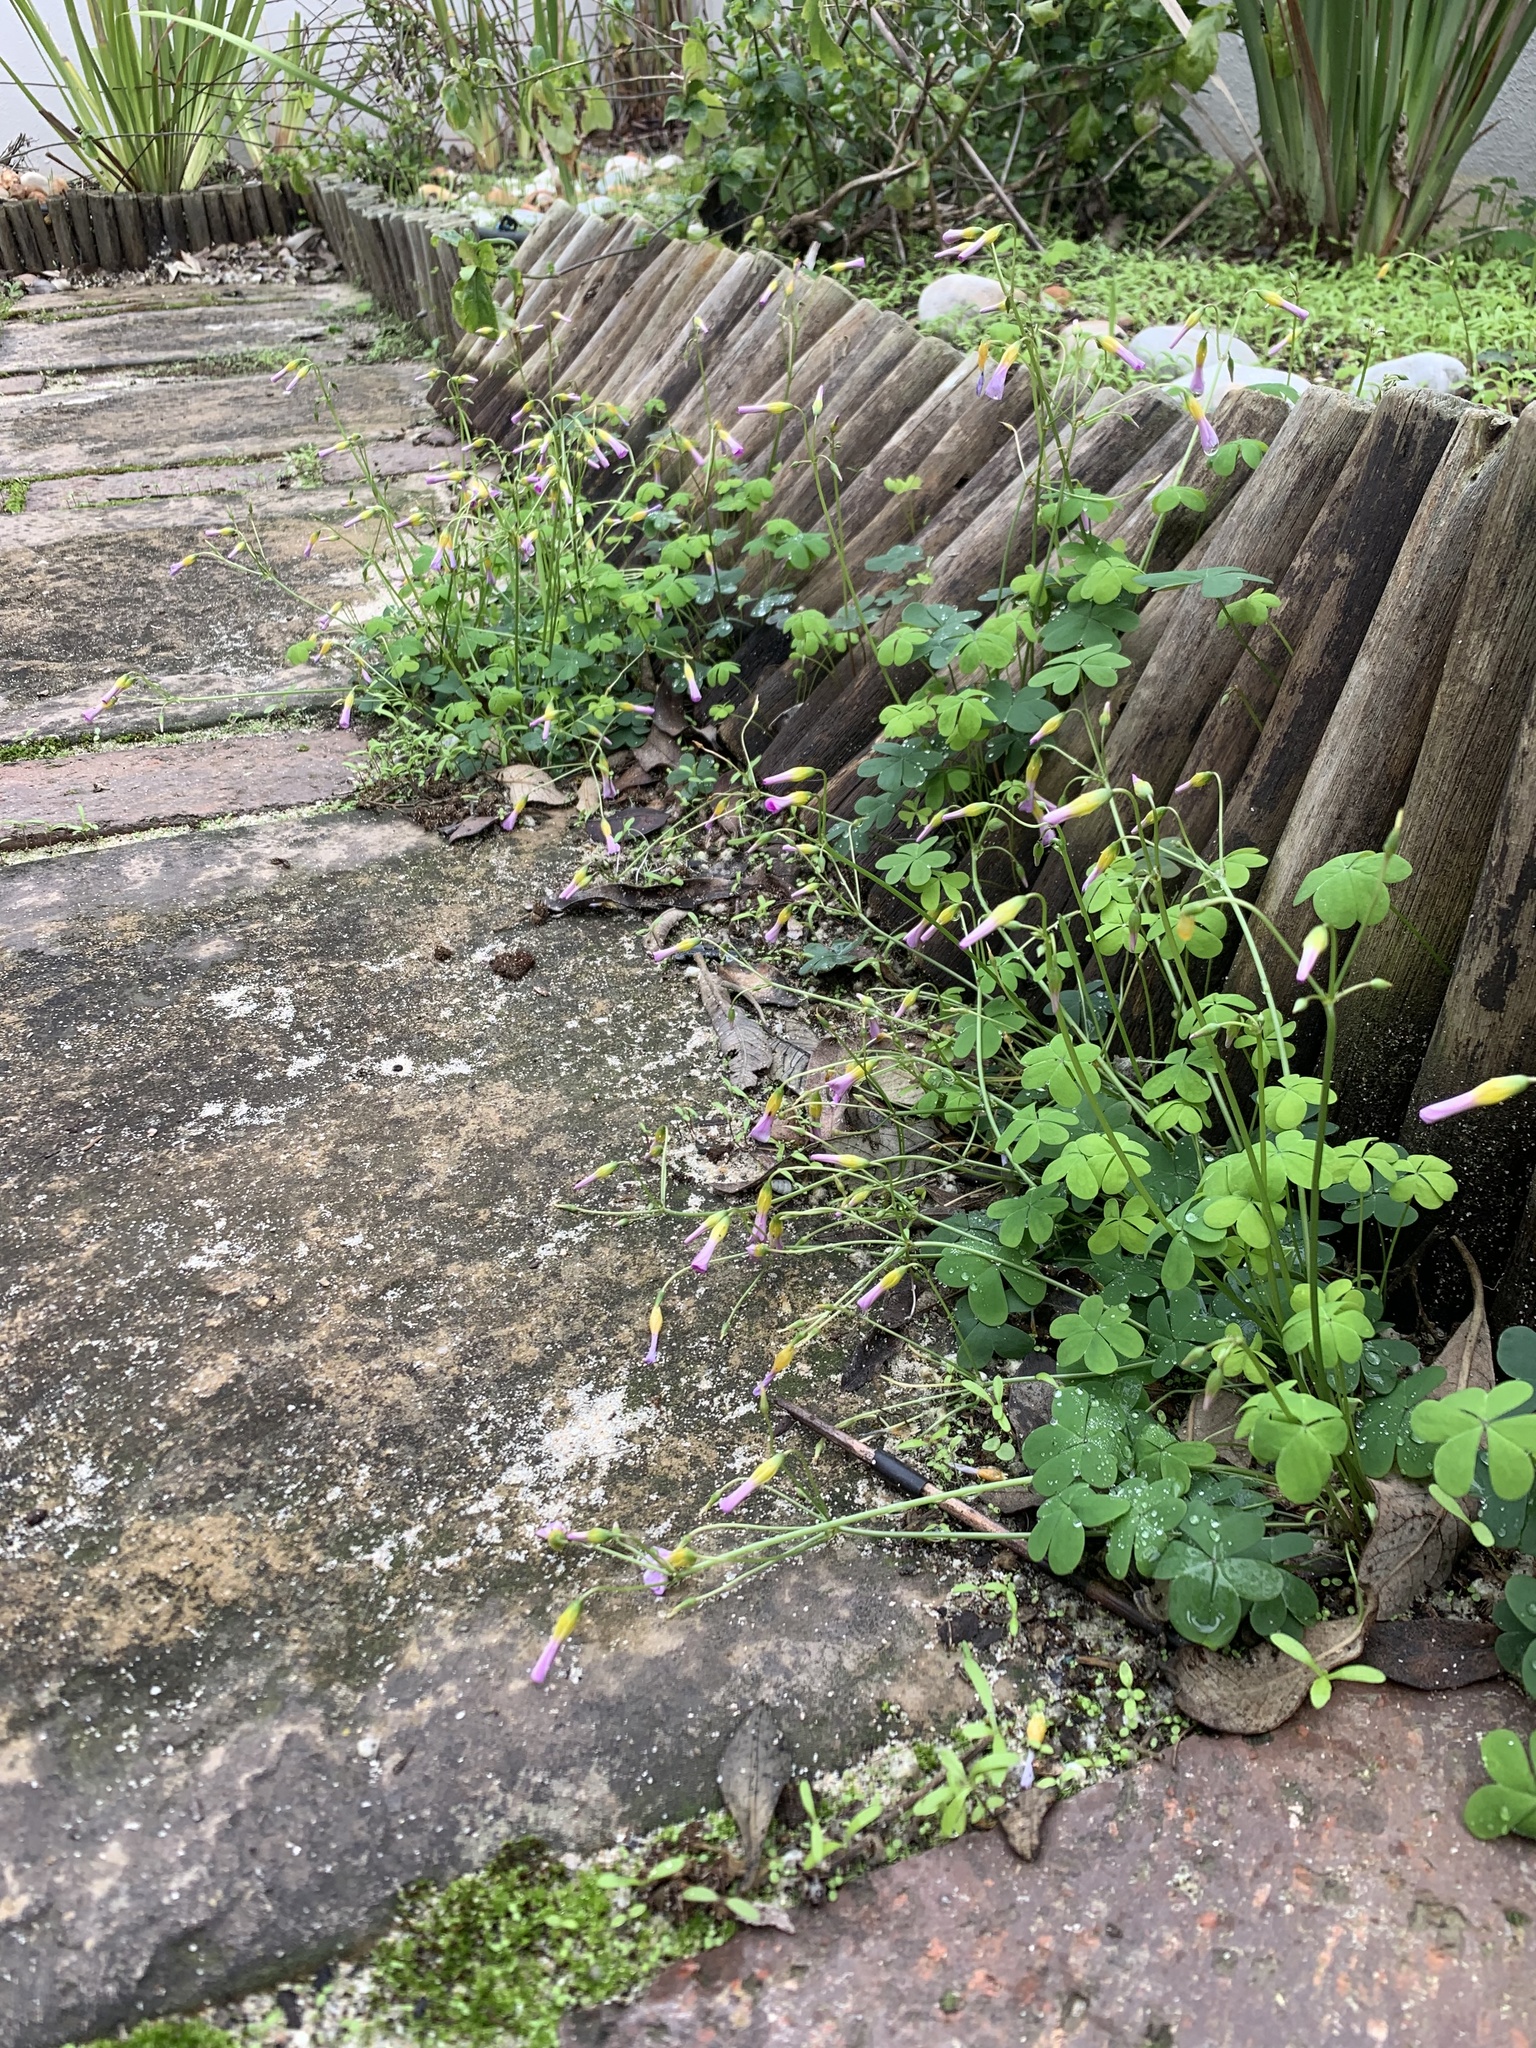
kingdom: Plantae
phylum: Tracheophyta
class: Magnoliopsida
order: Oxalidales
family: Oxalidaceae
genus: Oxalis
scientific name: Oxalis caprina
